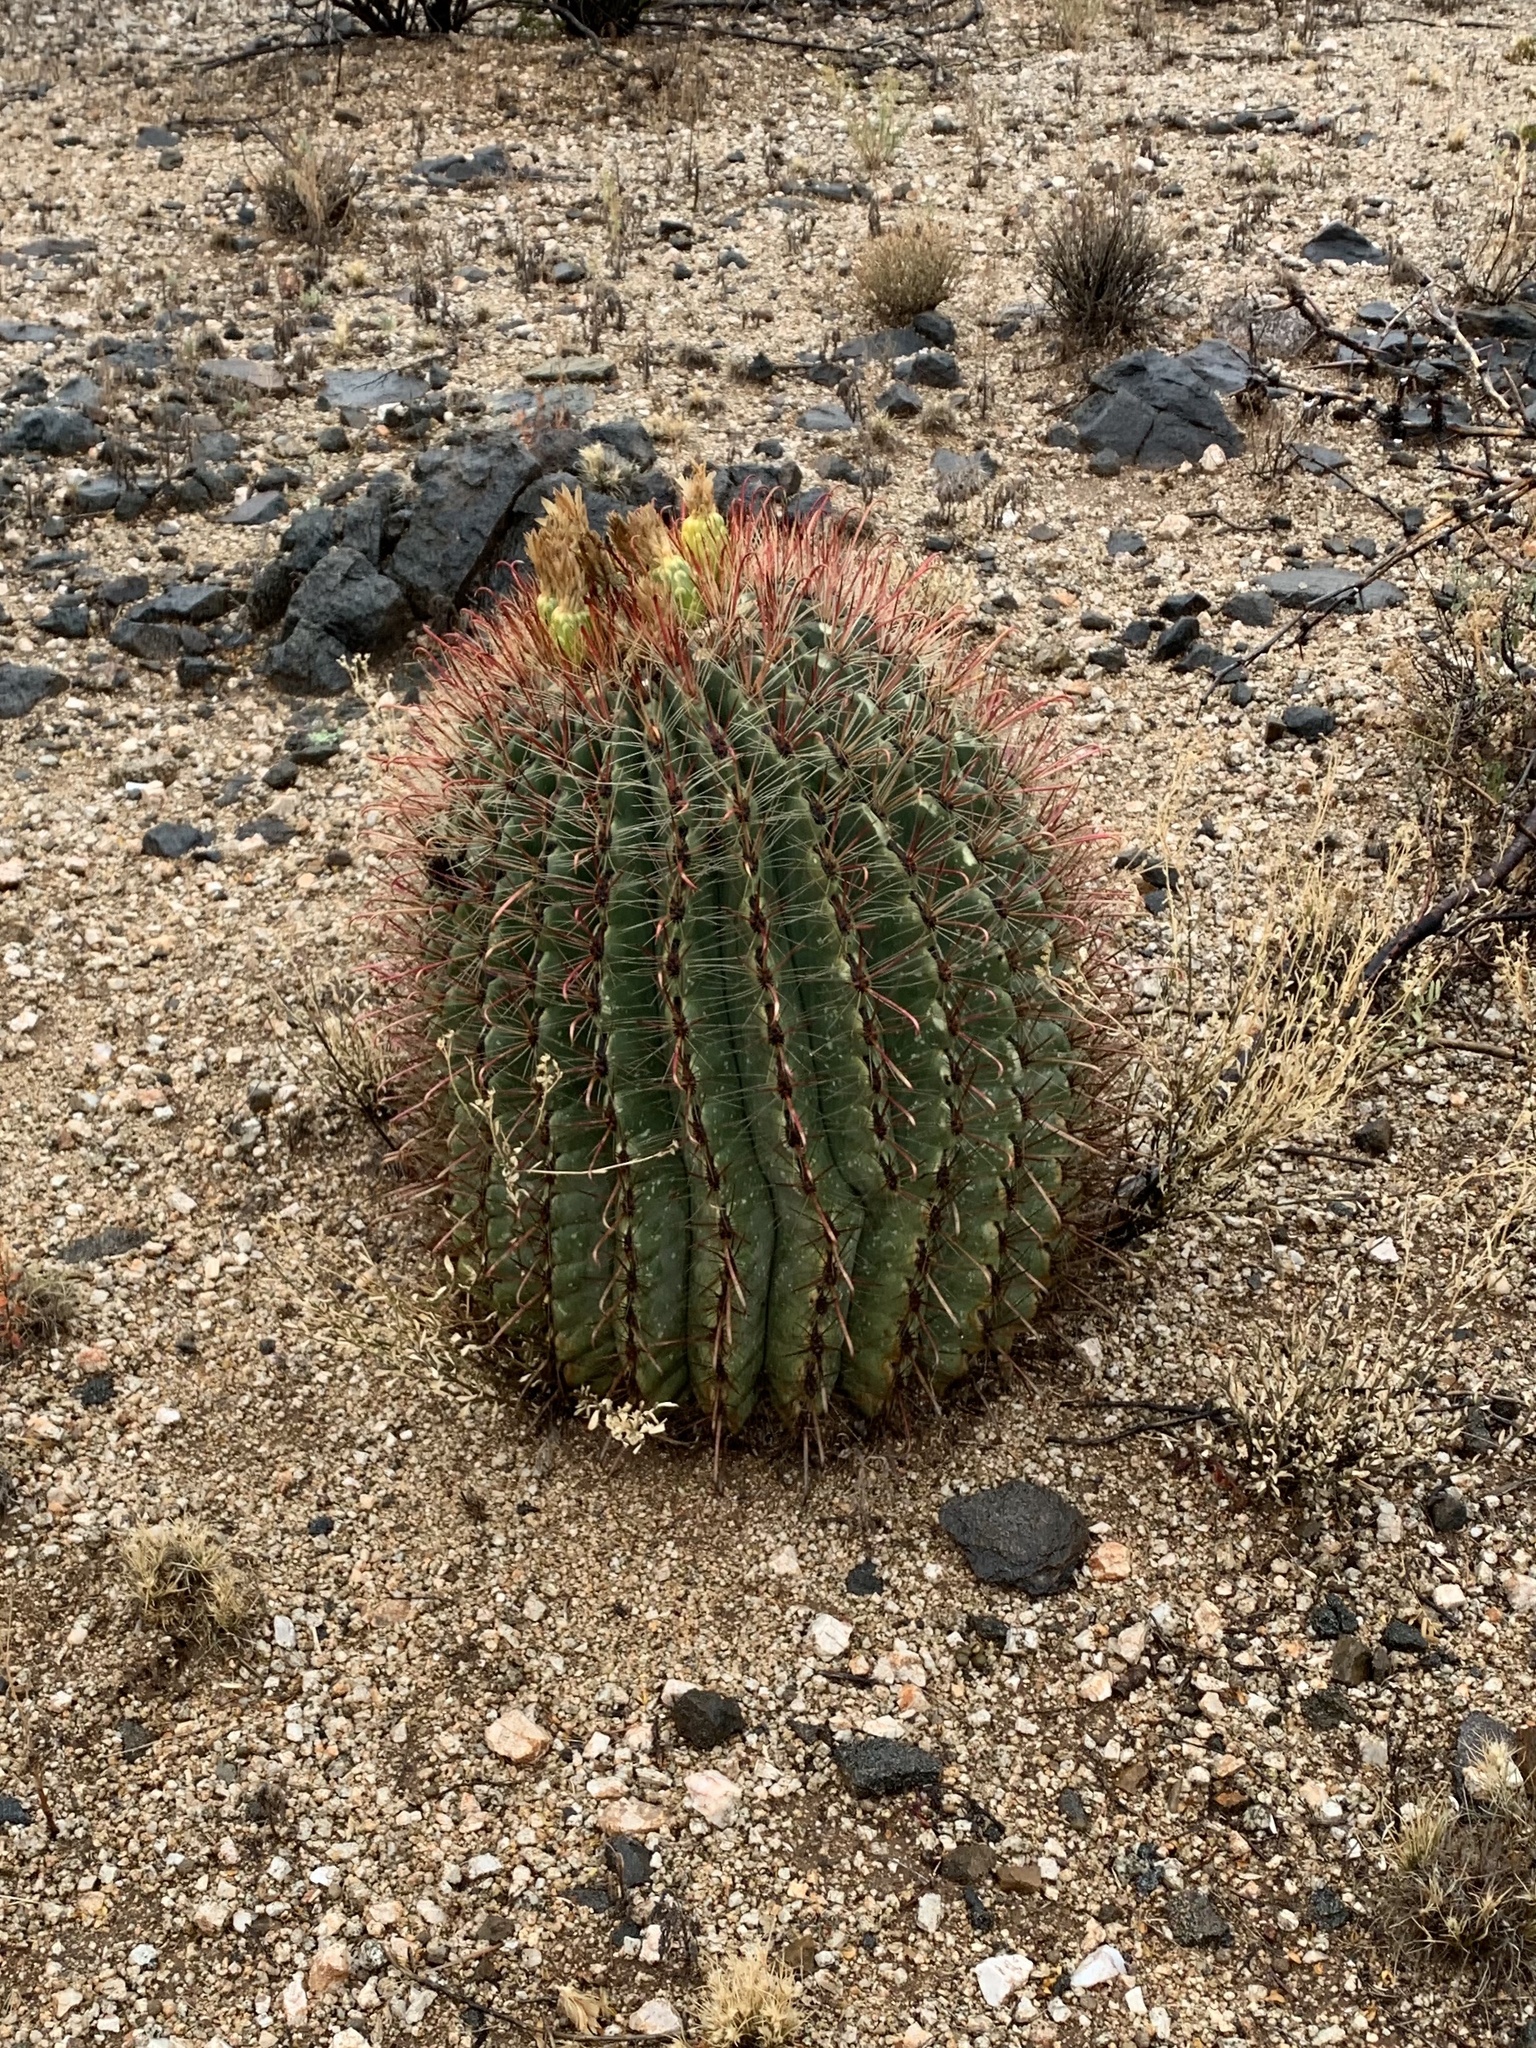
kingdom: Plantae
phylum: Tracheophyta
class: Magnoliopsida
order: Caryophyllales
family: Cactaceae
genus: Ferocactus
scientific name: Ferocactus wislizeni
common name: Candy barrel cactus
